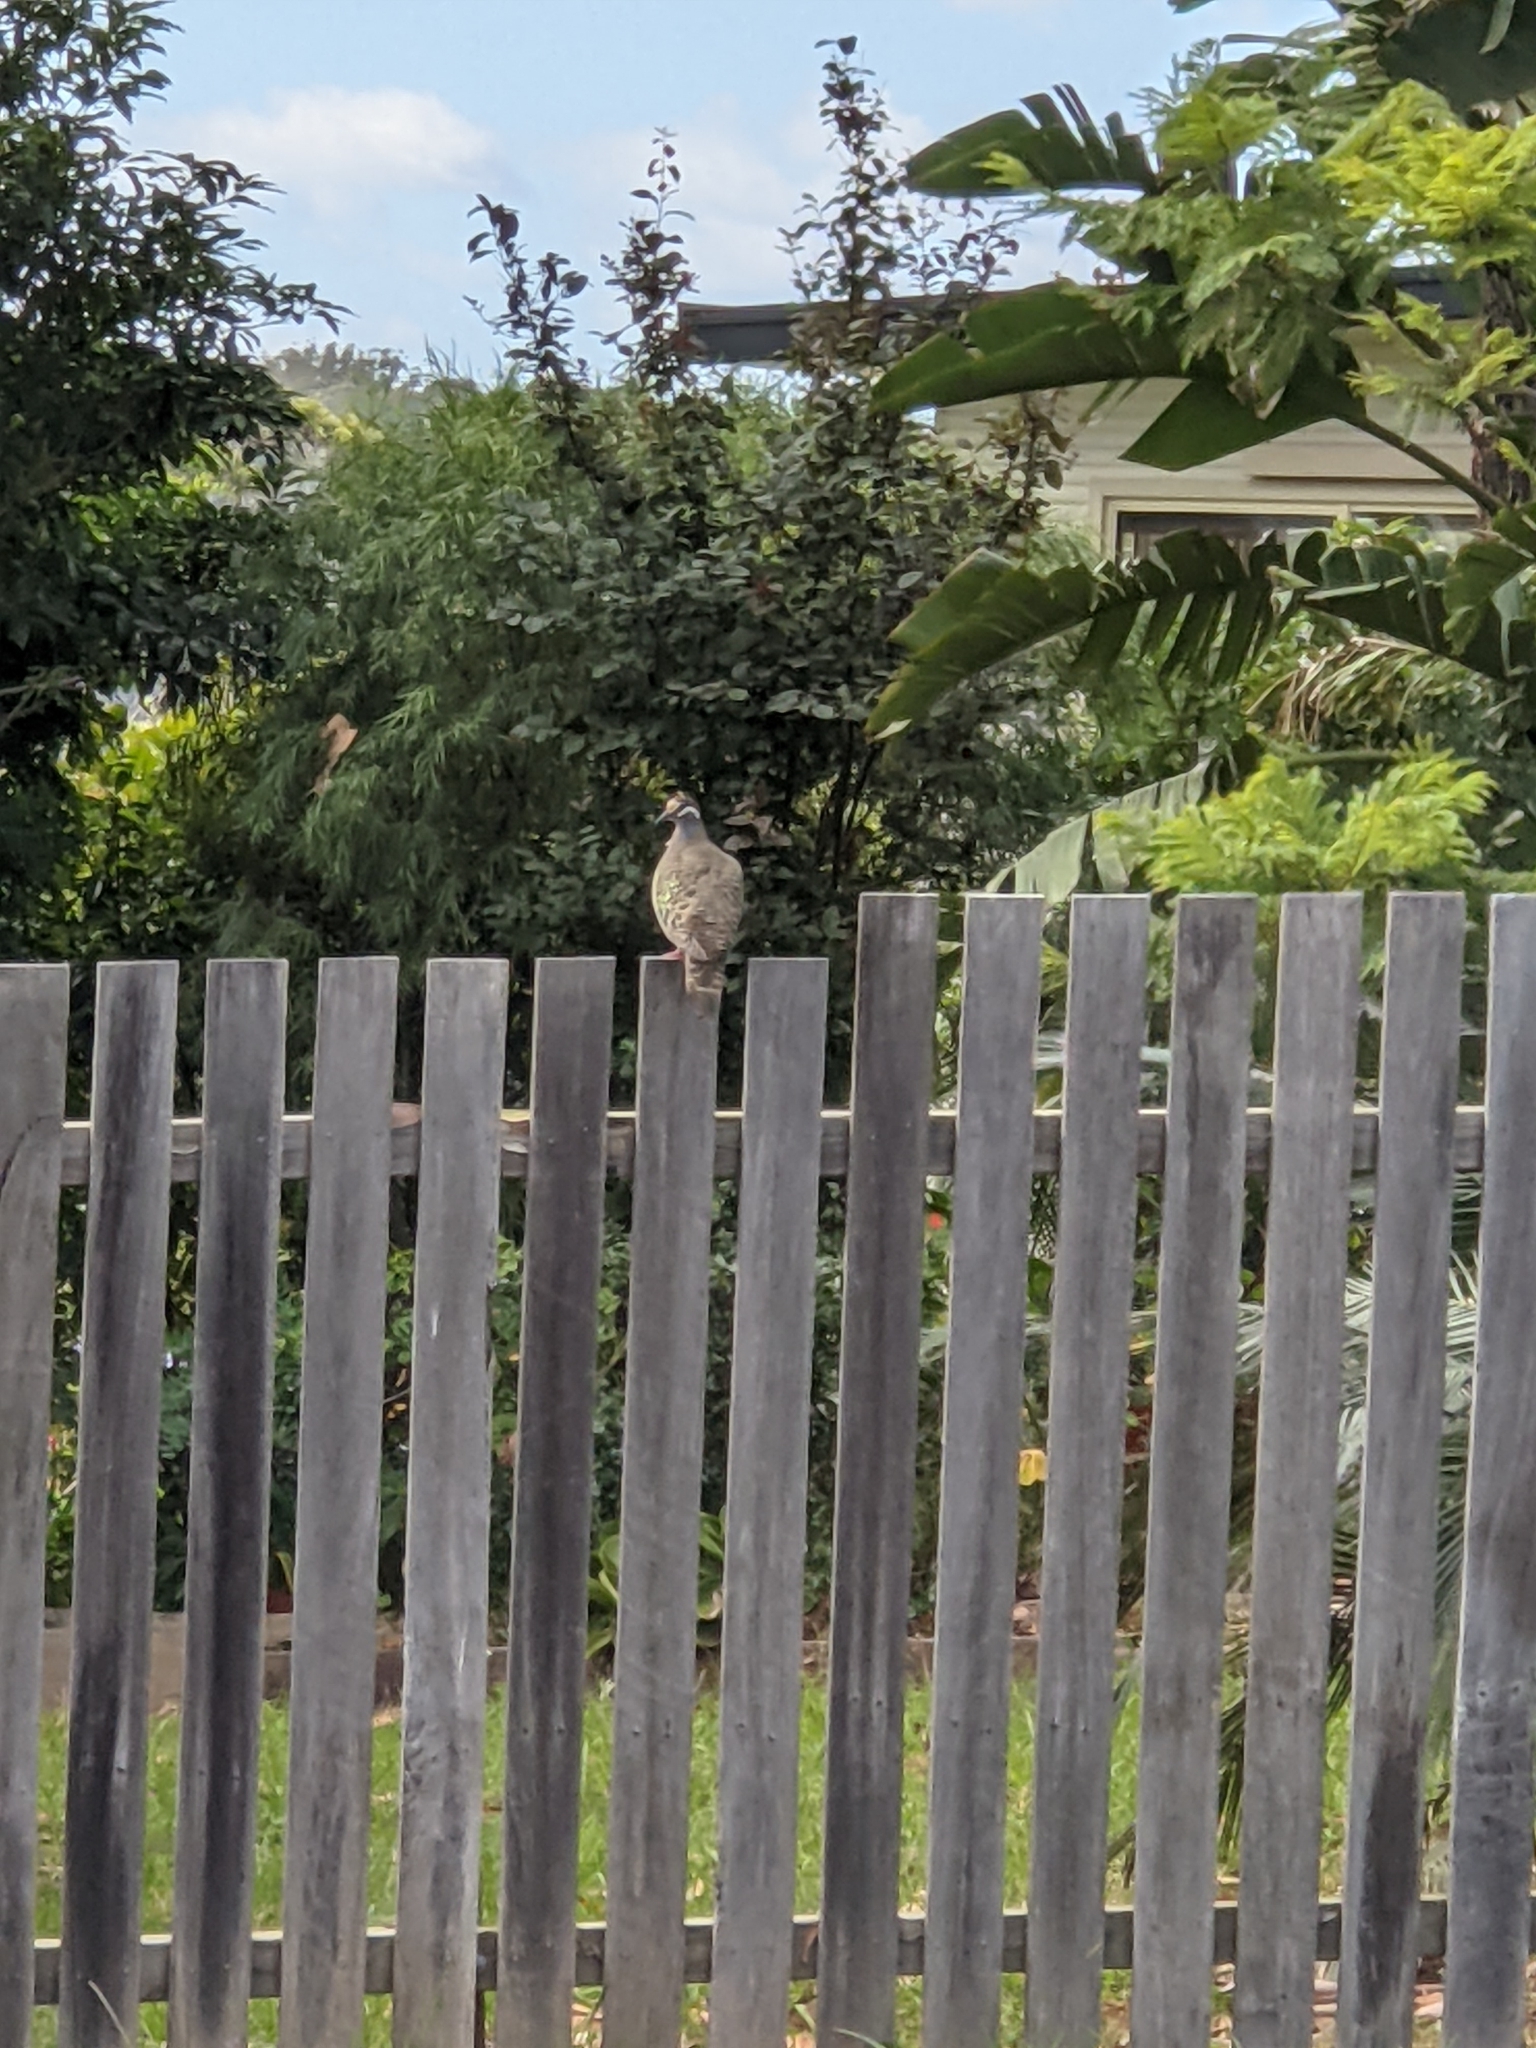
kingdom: Animalia
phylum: Chordata
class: Aves
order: Columbiformes
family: Columbidae
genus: Phaps
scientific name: Phaps chalcoptera
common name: Common bronzewing
